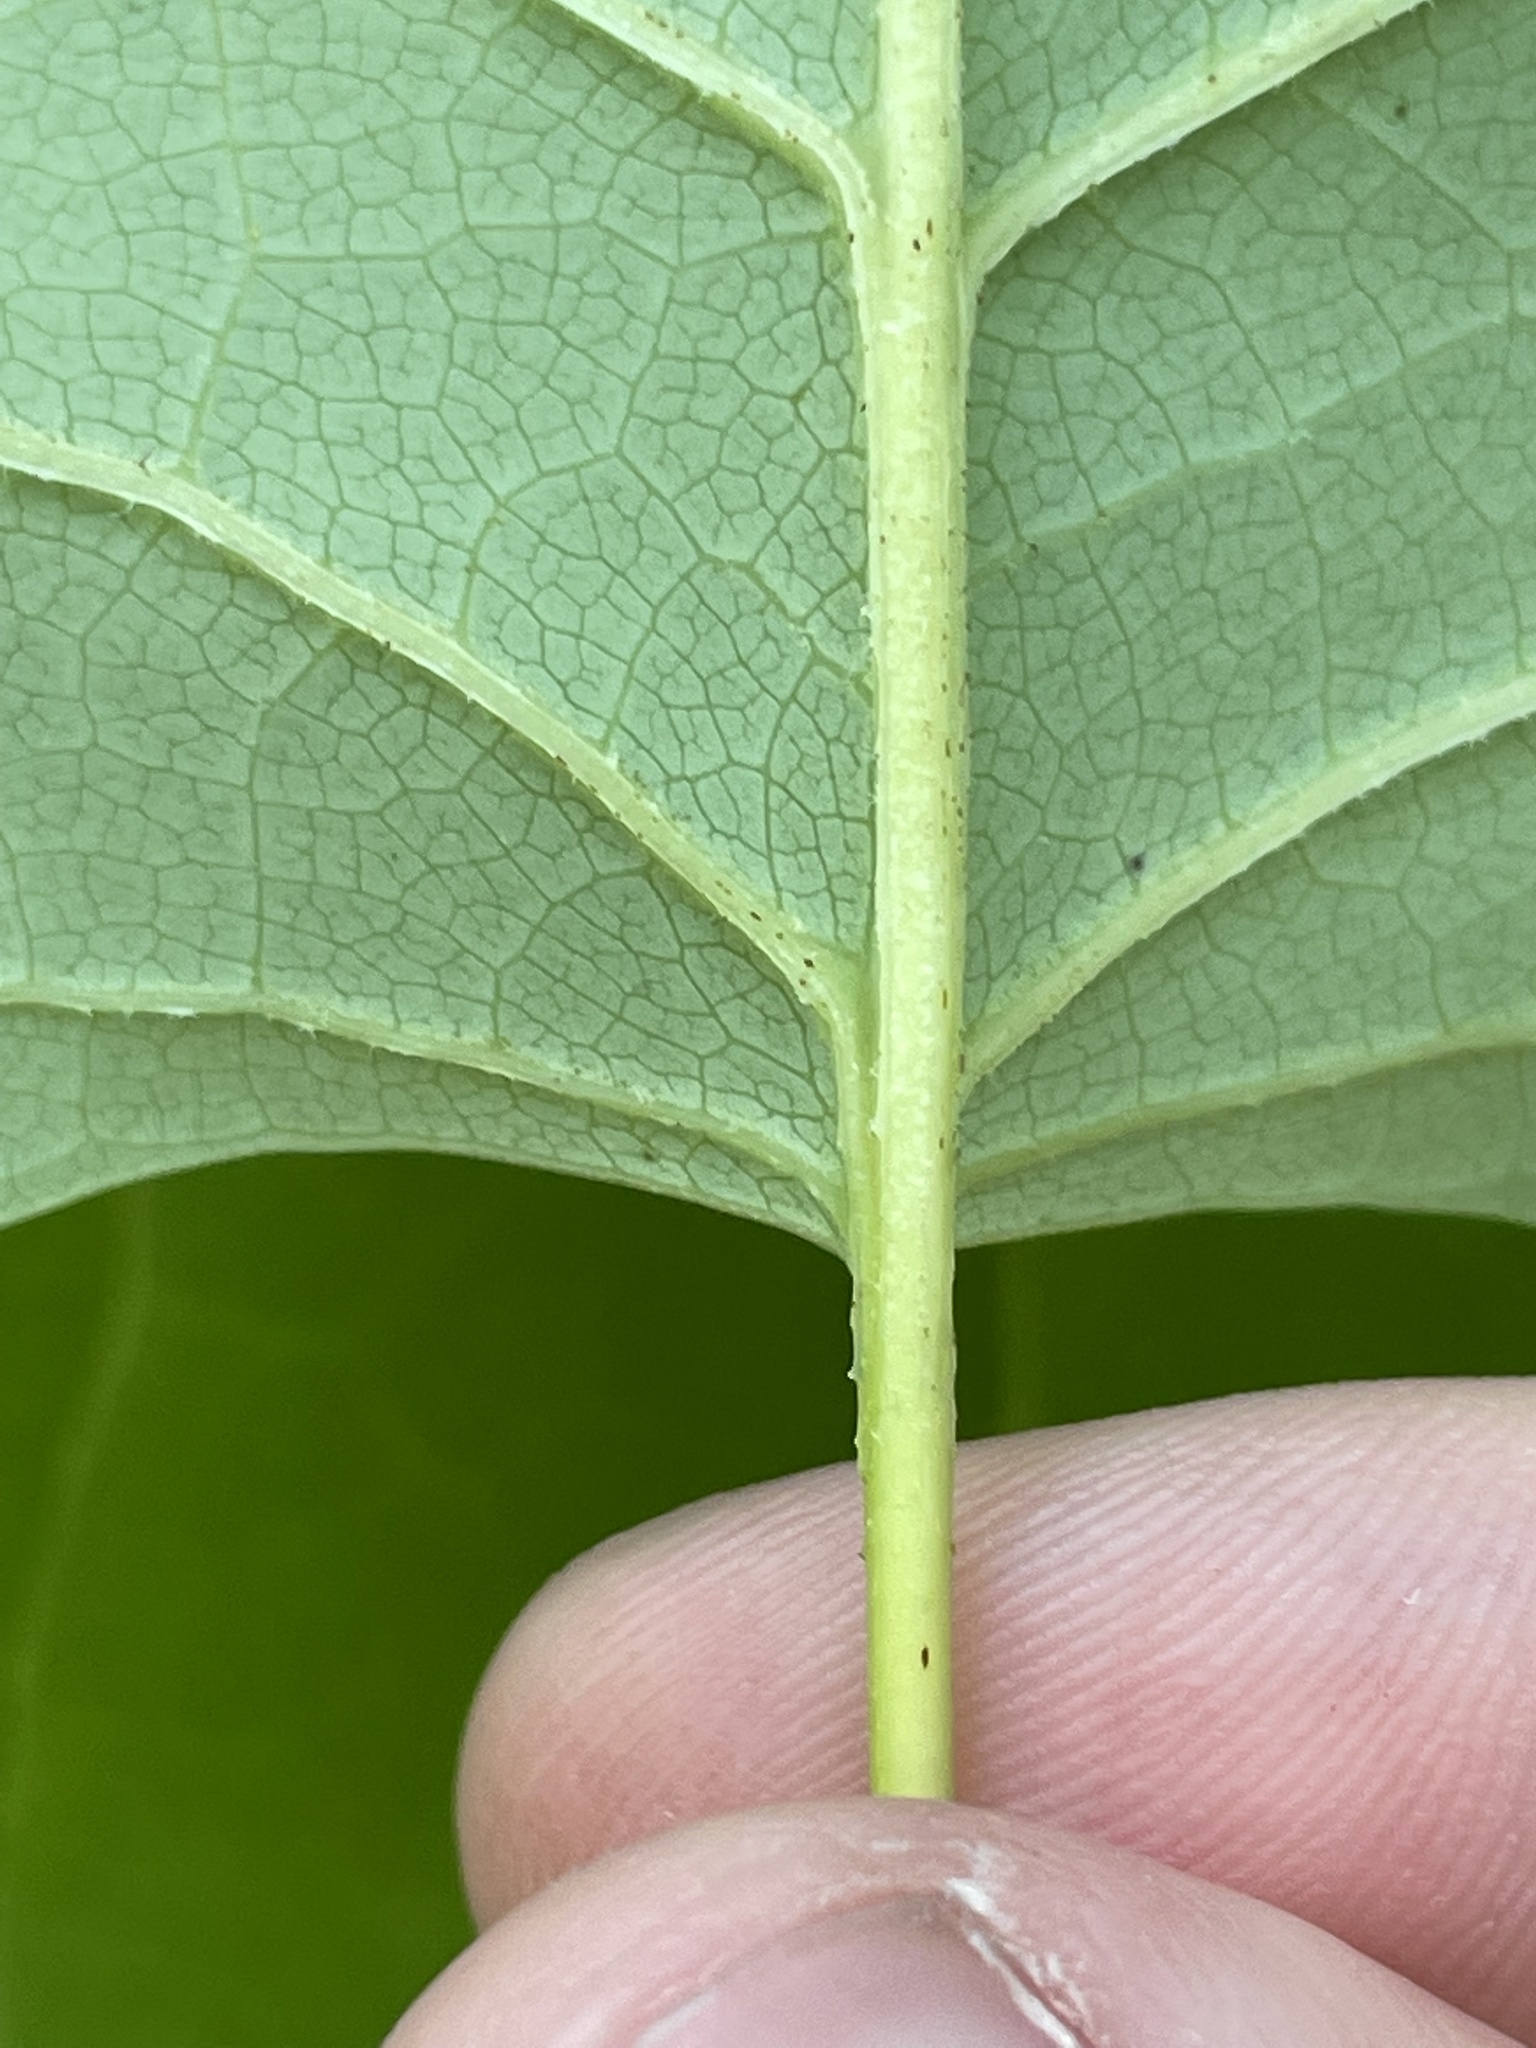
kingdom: Plantae
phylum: Tracheophyta
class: Magnoliopsida
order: Magnoliales
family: Magnoliaceae
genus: Liriodendron
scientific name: Liriodendron tulipifera
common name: Tulip tree
